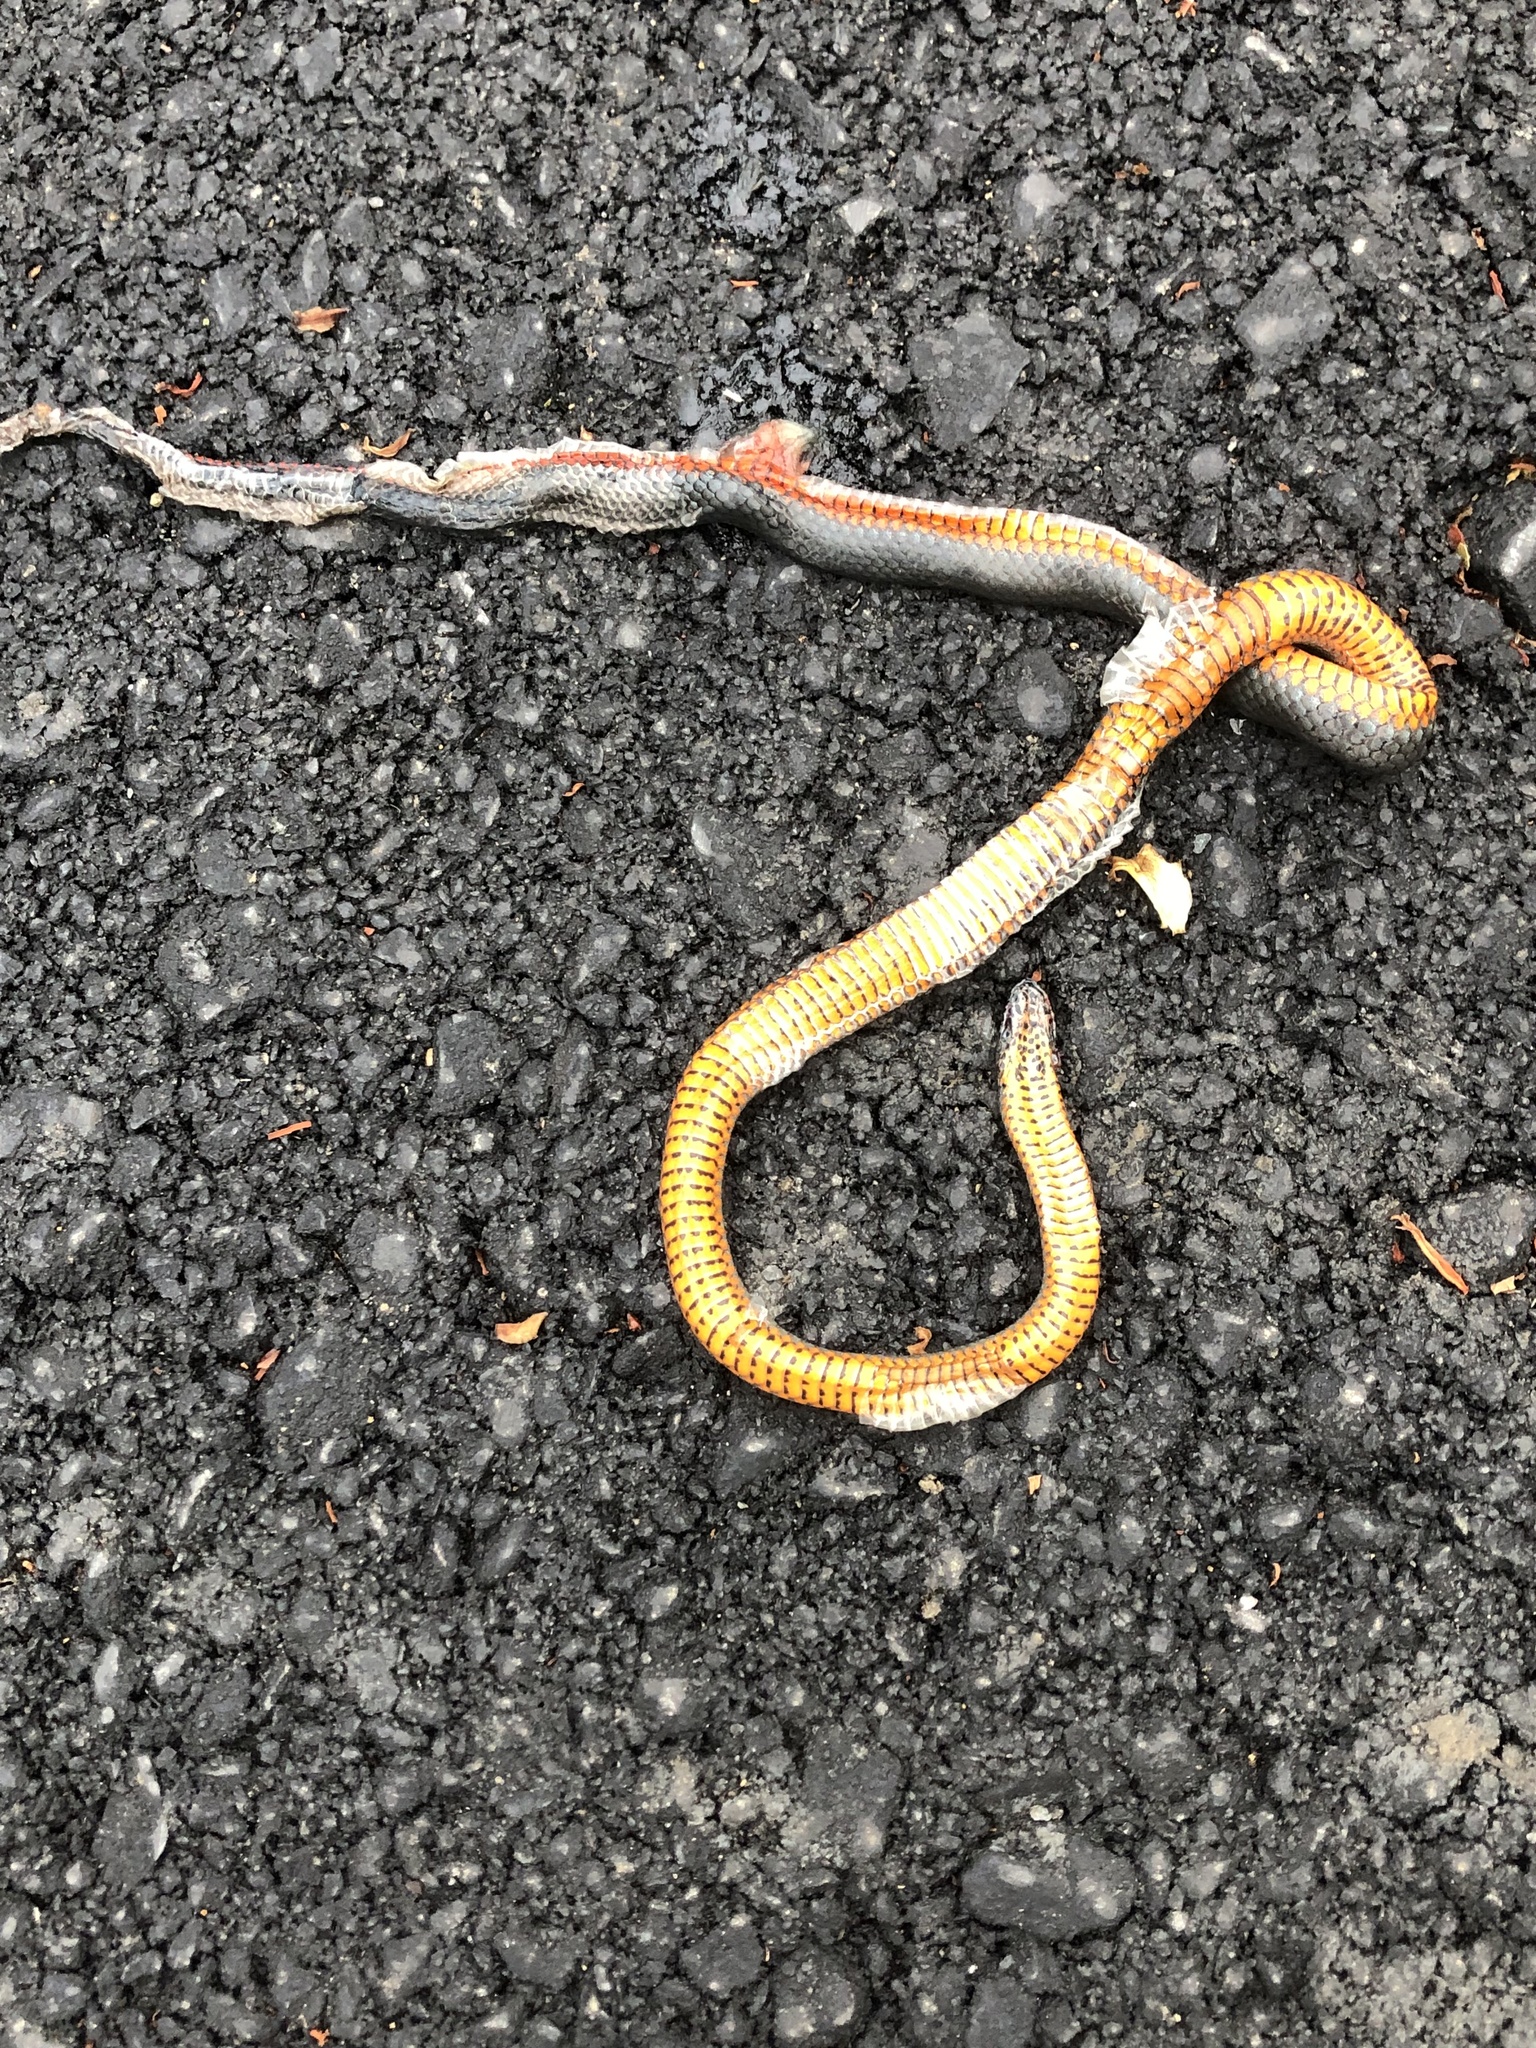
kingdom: Animalia
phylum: Chordata
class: Squamata
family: Colubridae
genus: Diadophis
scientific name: Diadophis punctatus
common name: Ringneck snake
